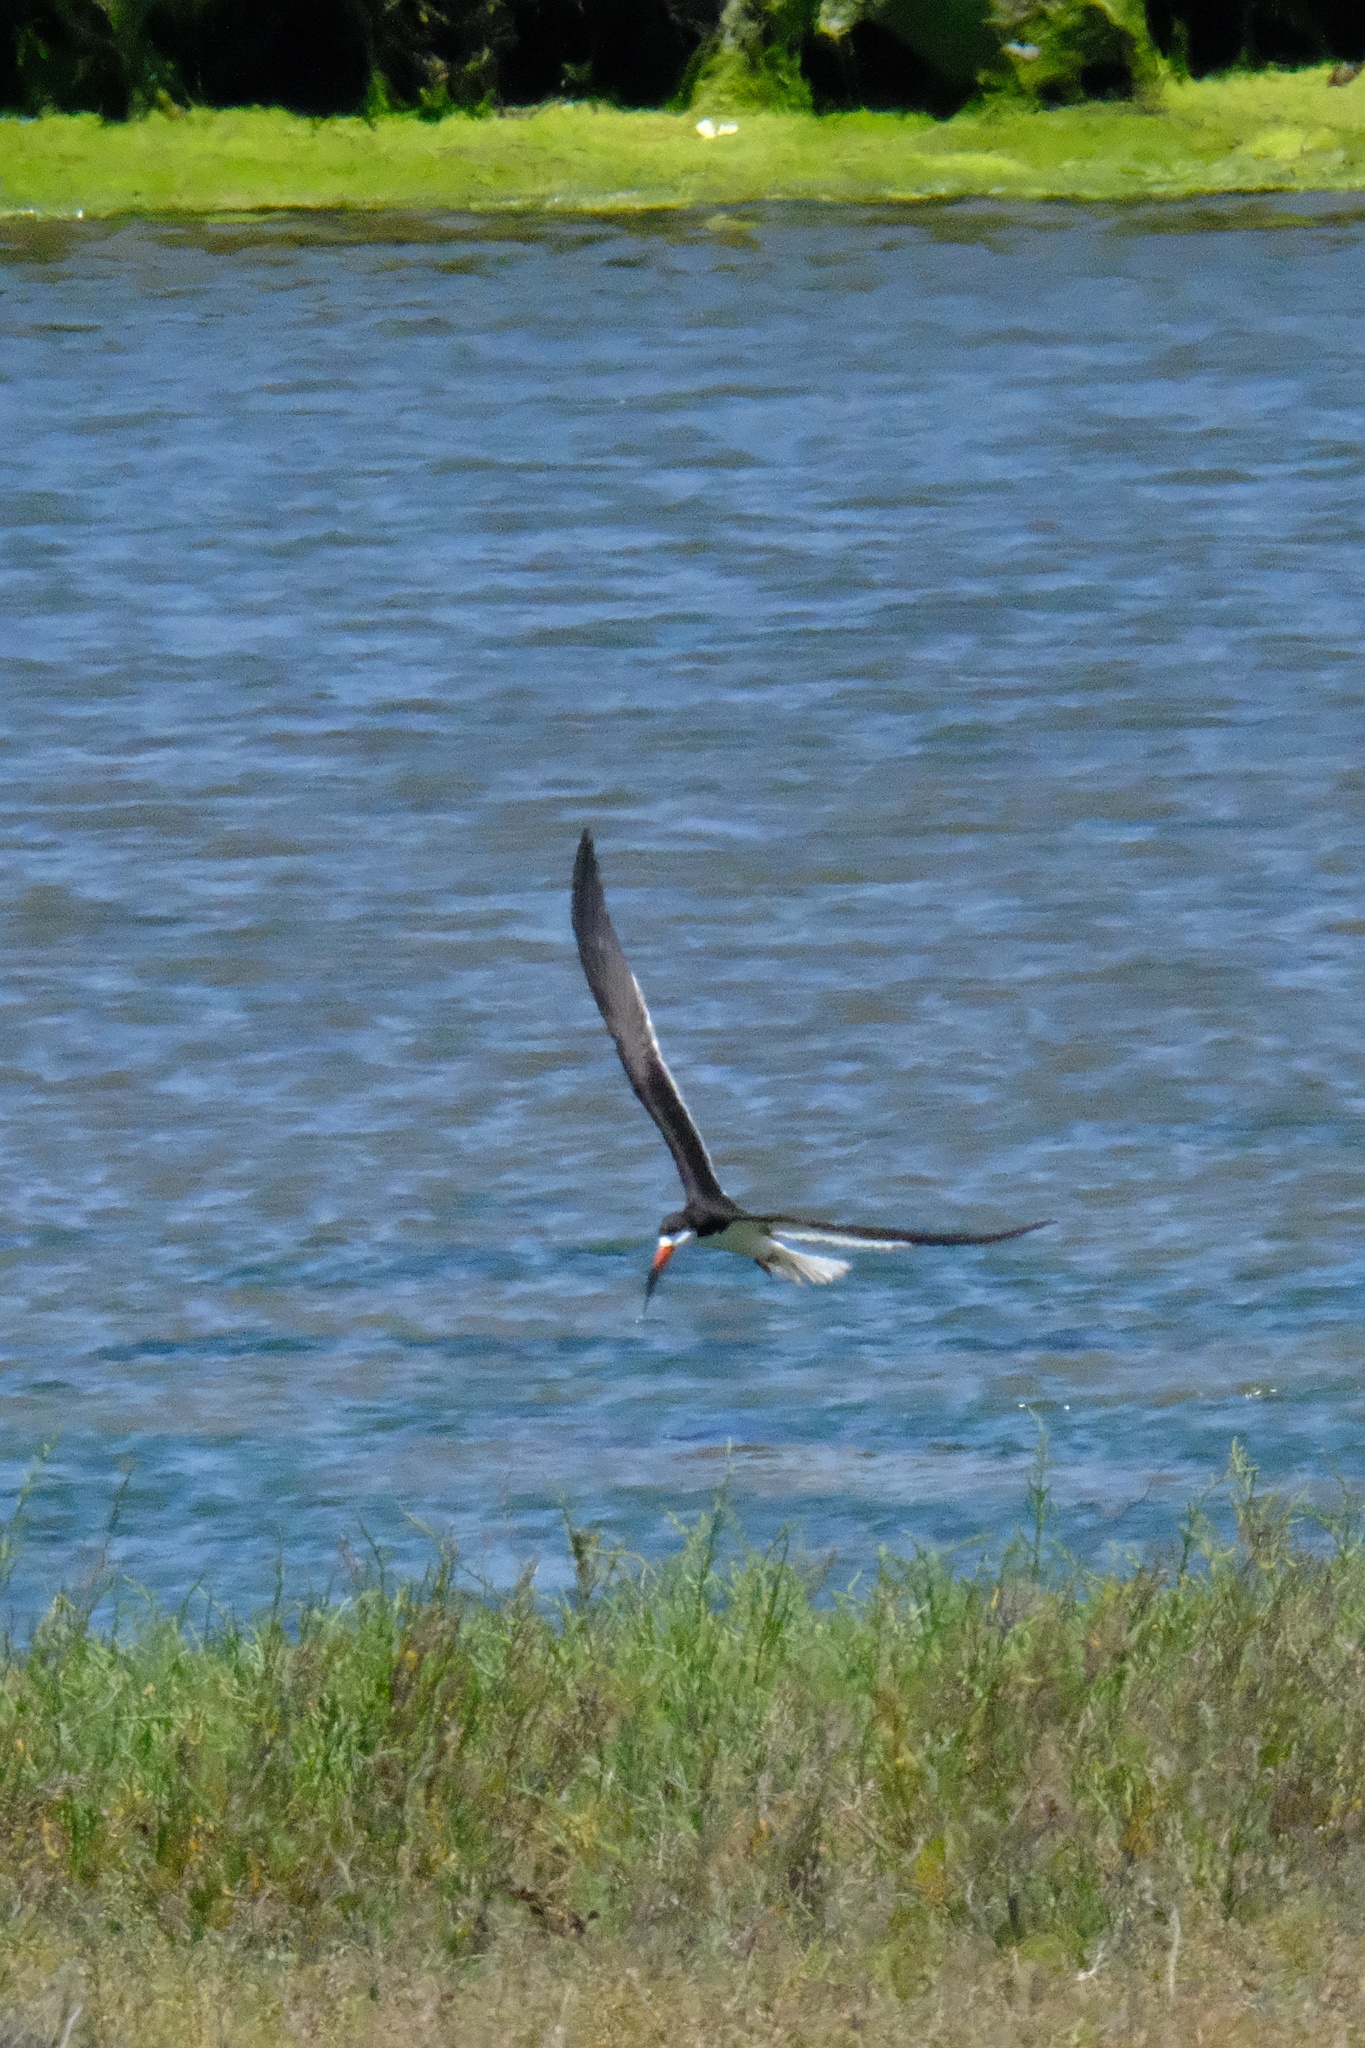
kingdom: Animalia
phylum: Chordata
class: Aves
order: Charadriiformes
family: Laridae
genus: Rynchops
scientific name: Rynchops niger
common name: Black skimmer
